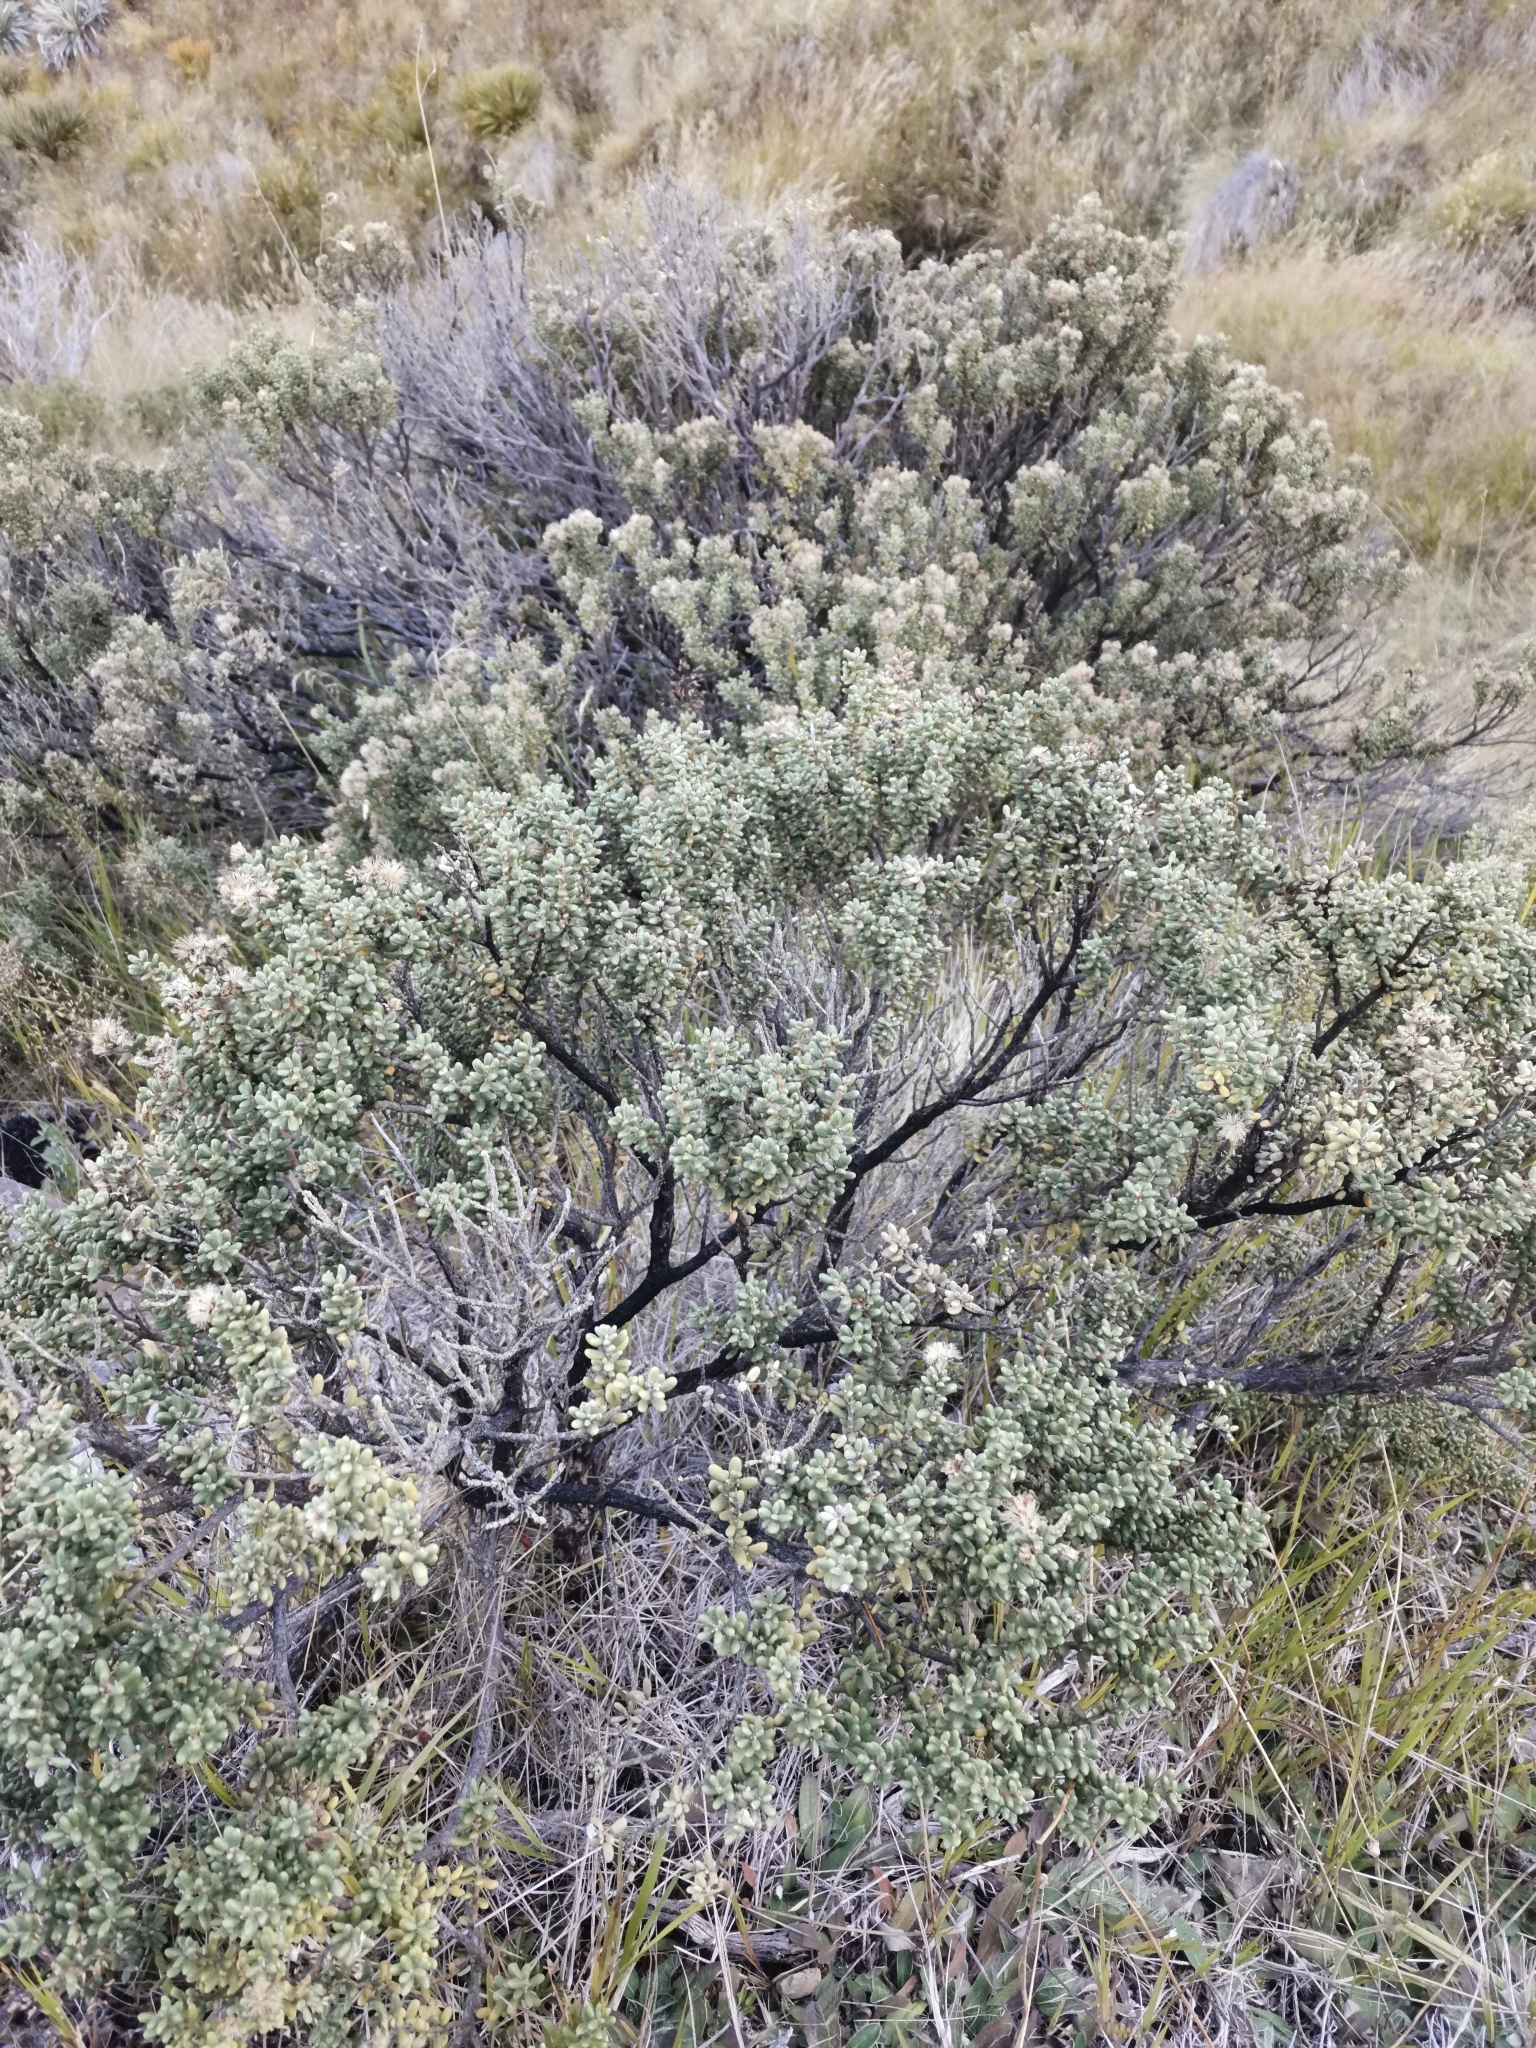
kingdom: Plantae
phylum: Tracheophyta
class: Magnoliopsida
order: Asterales
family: Asteraceae
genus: Olearia
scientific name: Olearia cymbifolia
